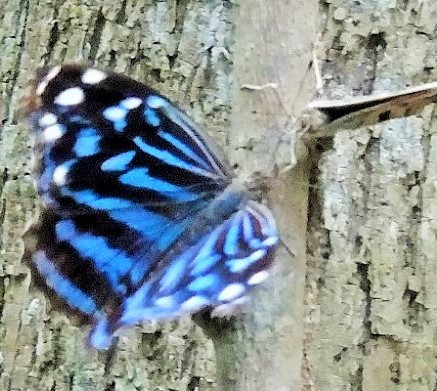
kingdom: Animalia
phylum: Arthropoda
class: Insecta
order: Lepidoptera
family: Nymphalidae
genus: Myscelia
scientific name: Myscelia ethusa
